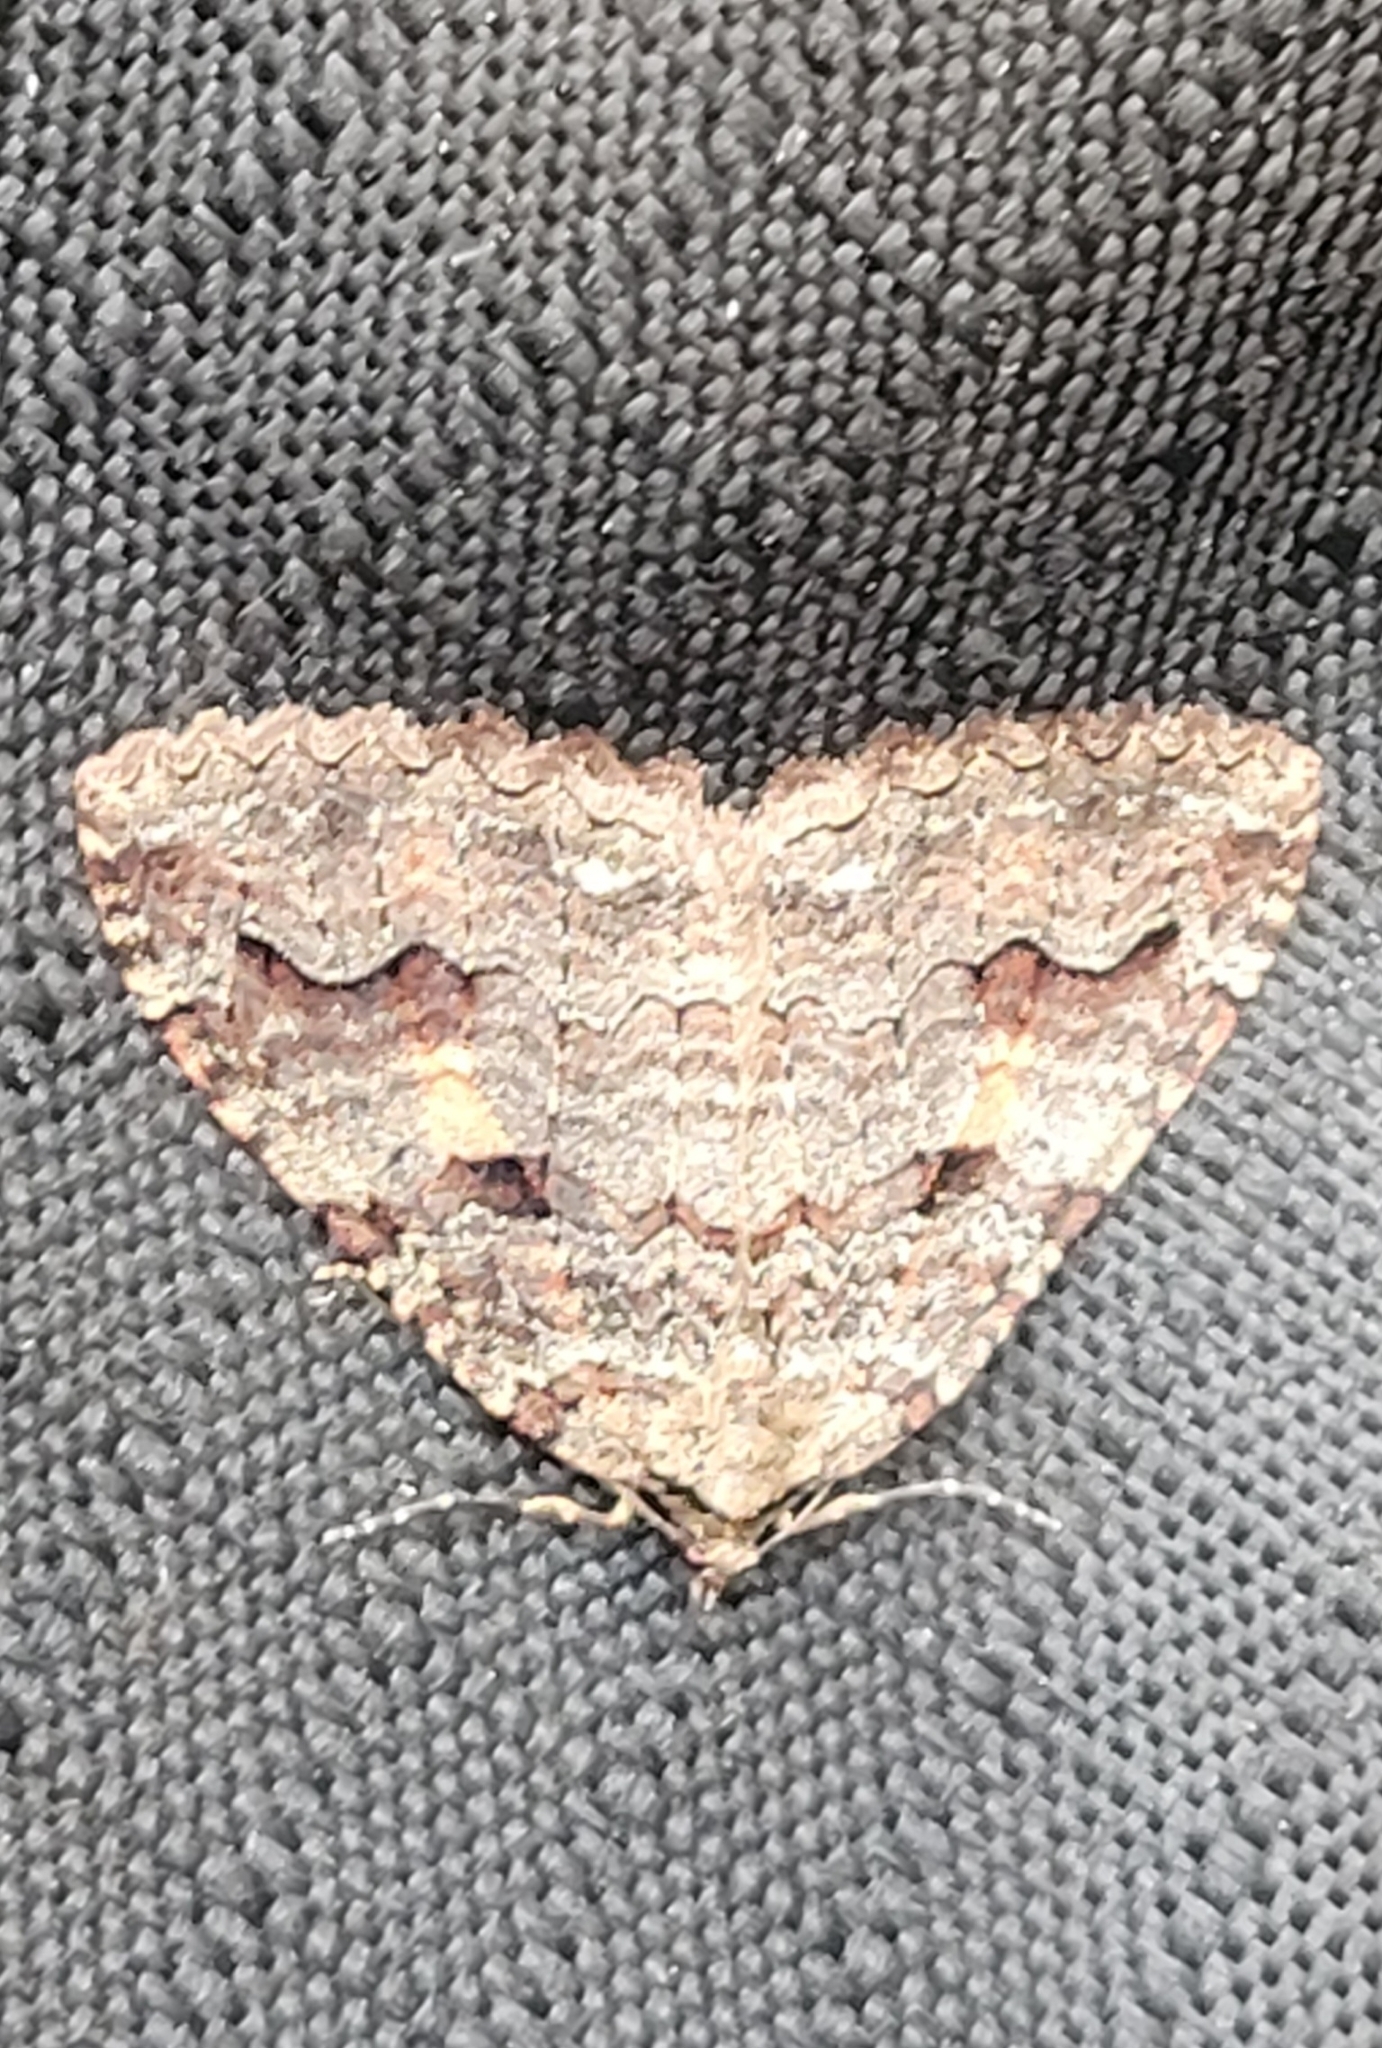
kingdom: Animalia
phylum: Arthropoda
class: Insecta
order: Lepidoptera
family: Geometridae
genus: Triphosa
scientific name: Triphosa haesitata
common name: Tissue moth
